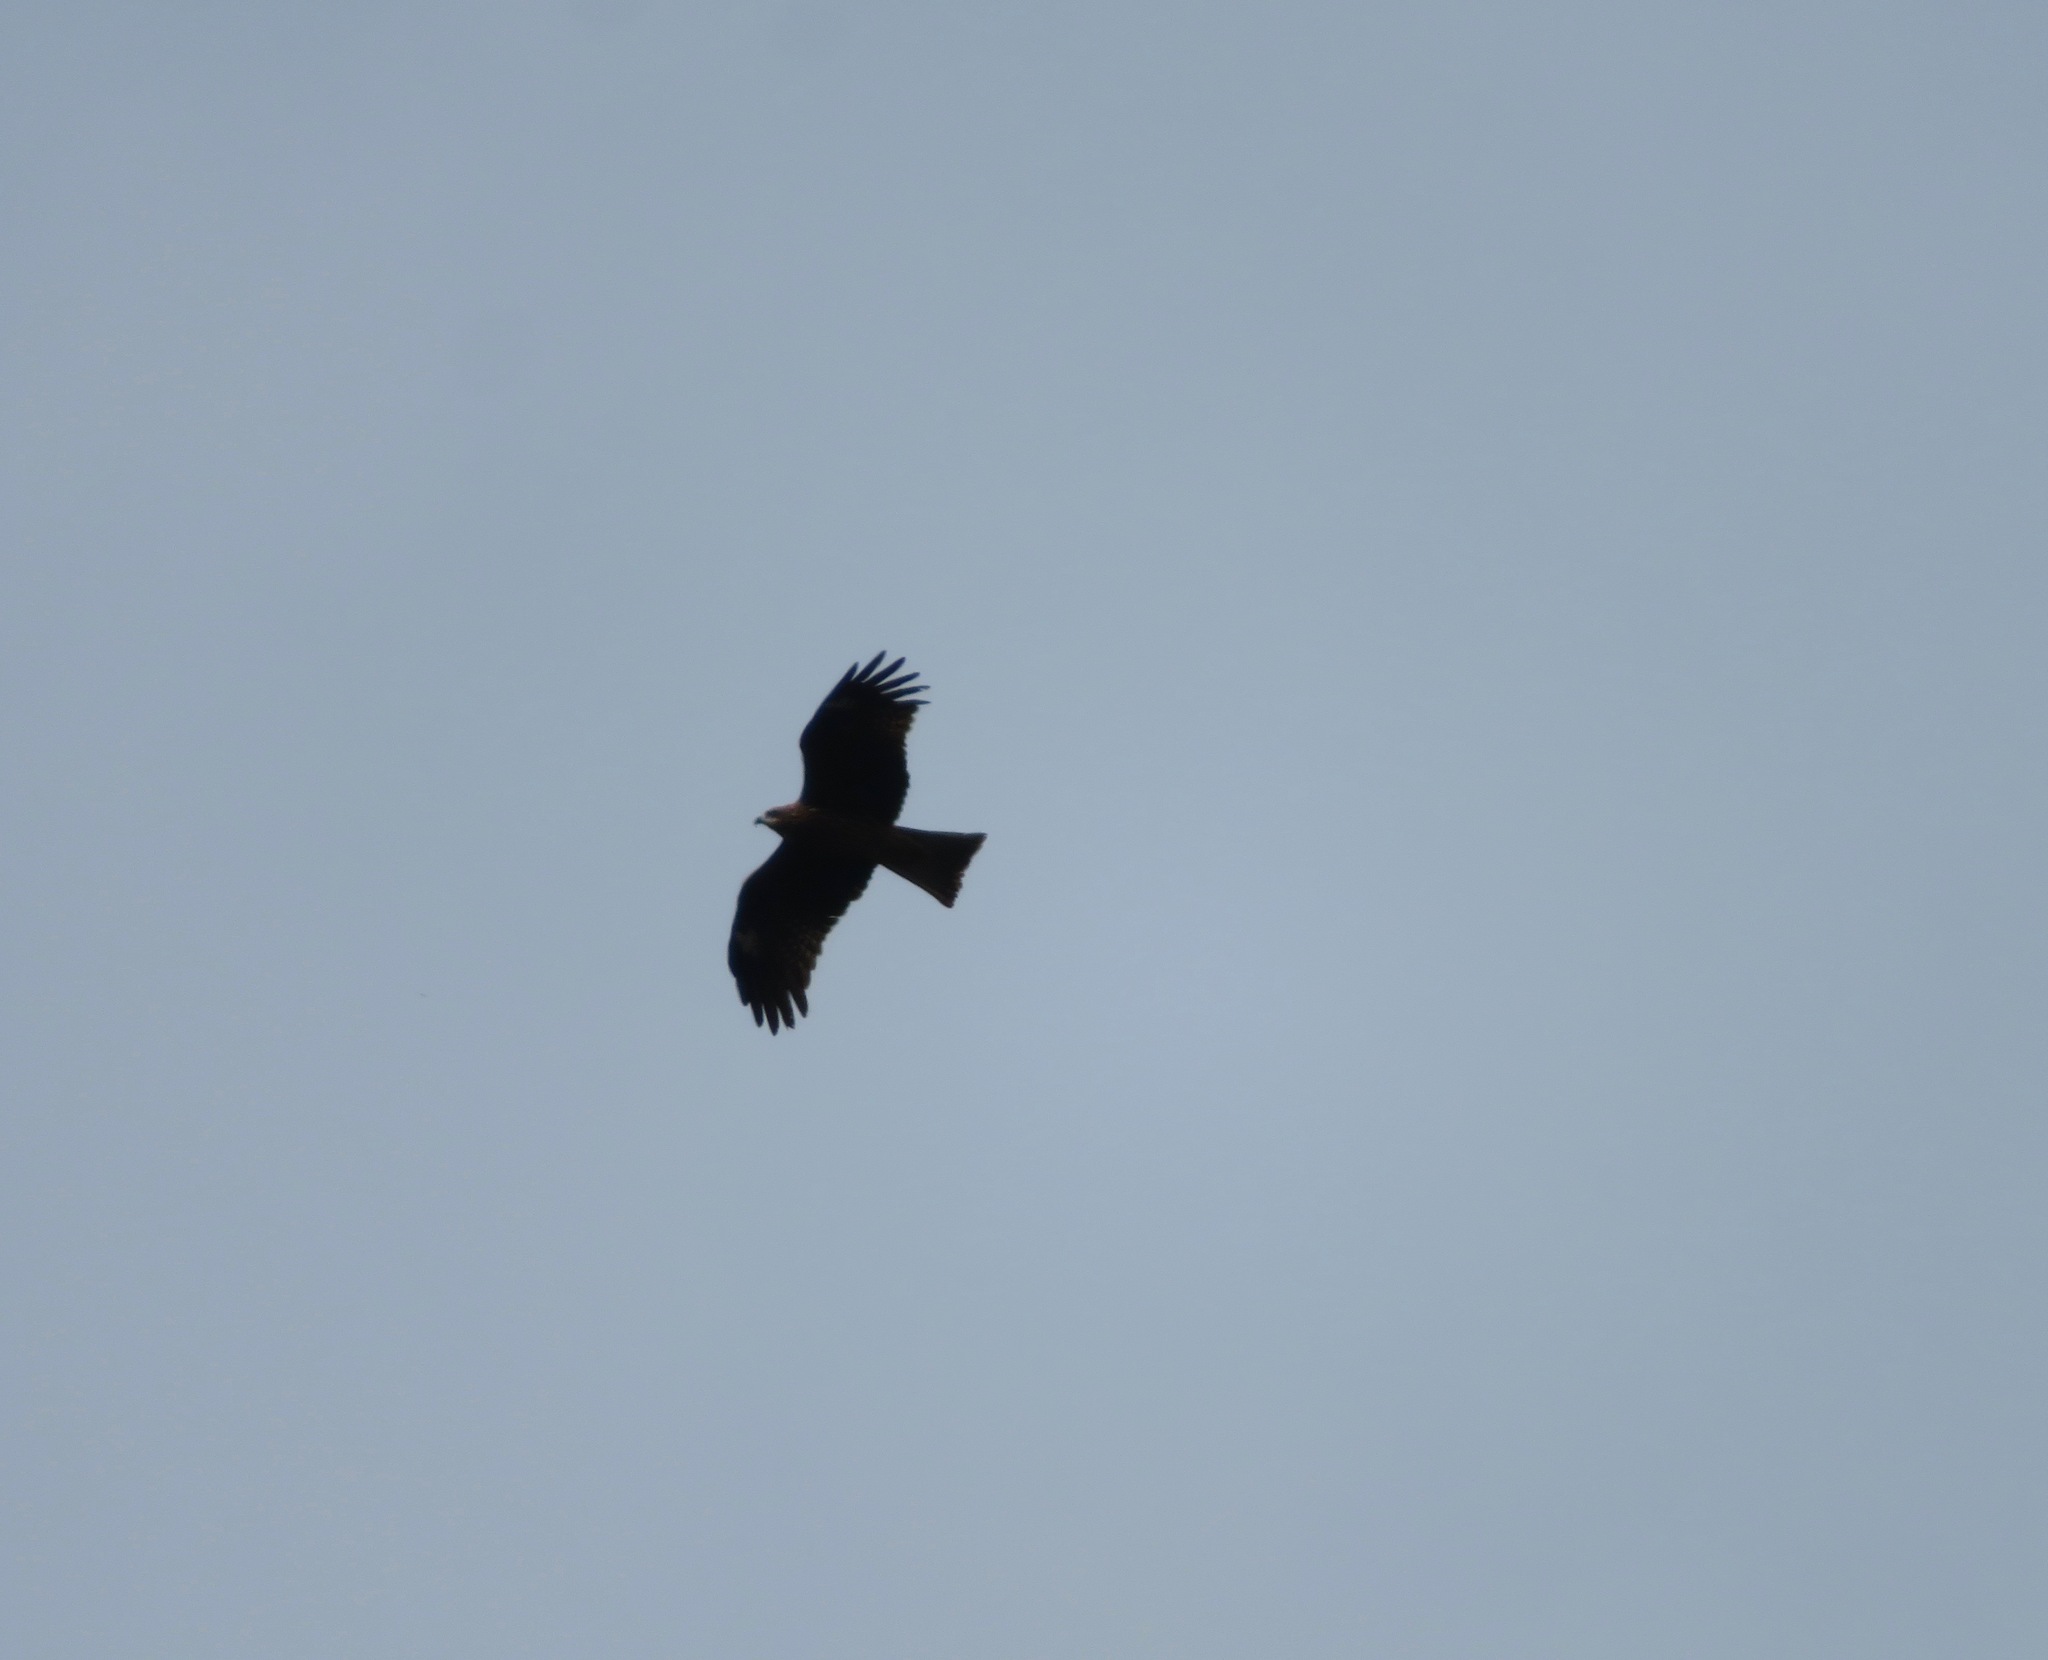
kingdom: Animalia
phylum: Chordata
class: Aves
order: Accipitriformes
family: Accipitridae
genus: Milvus
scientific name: Milvus migrans
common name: Black kite
